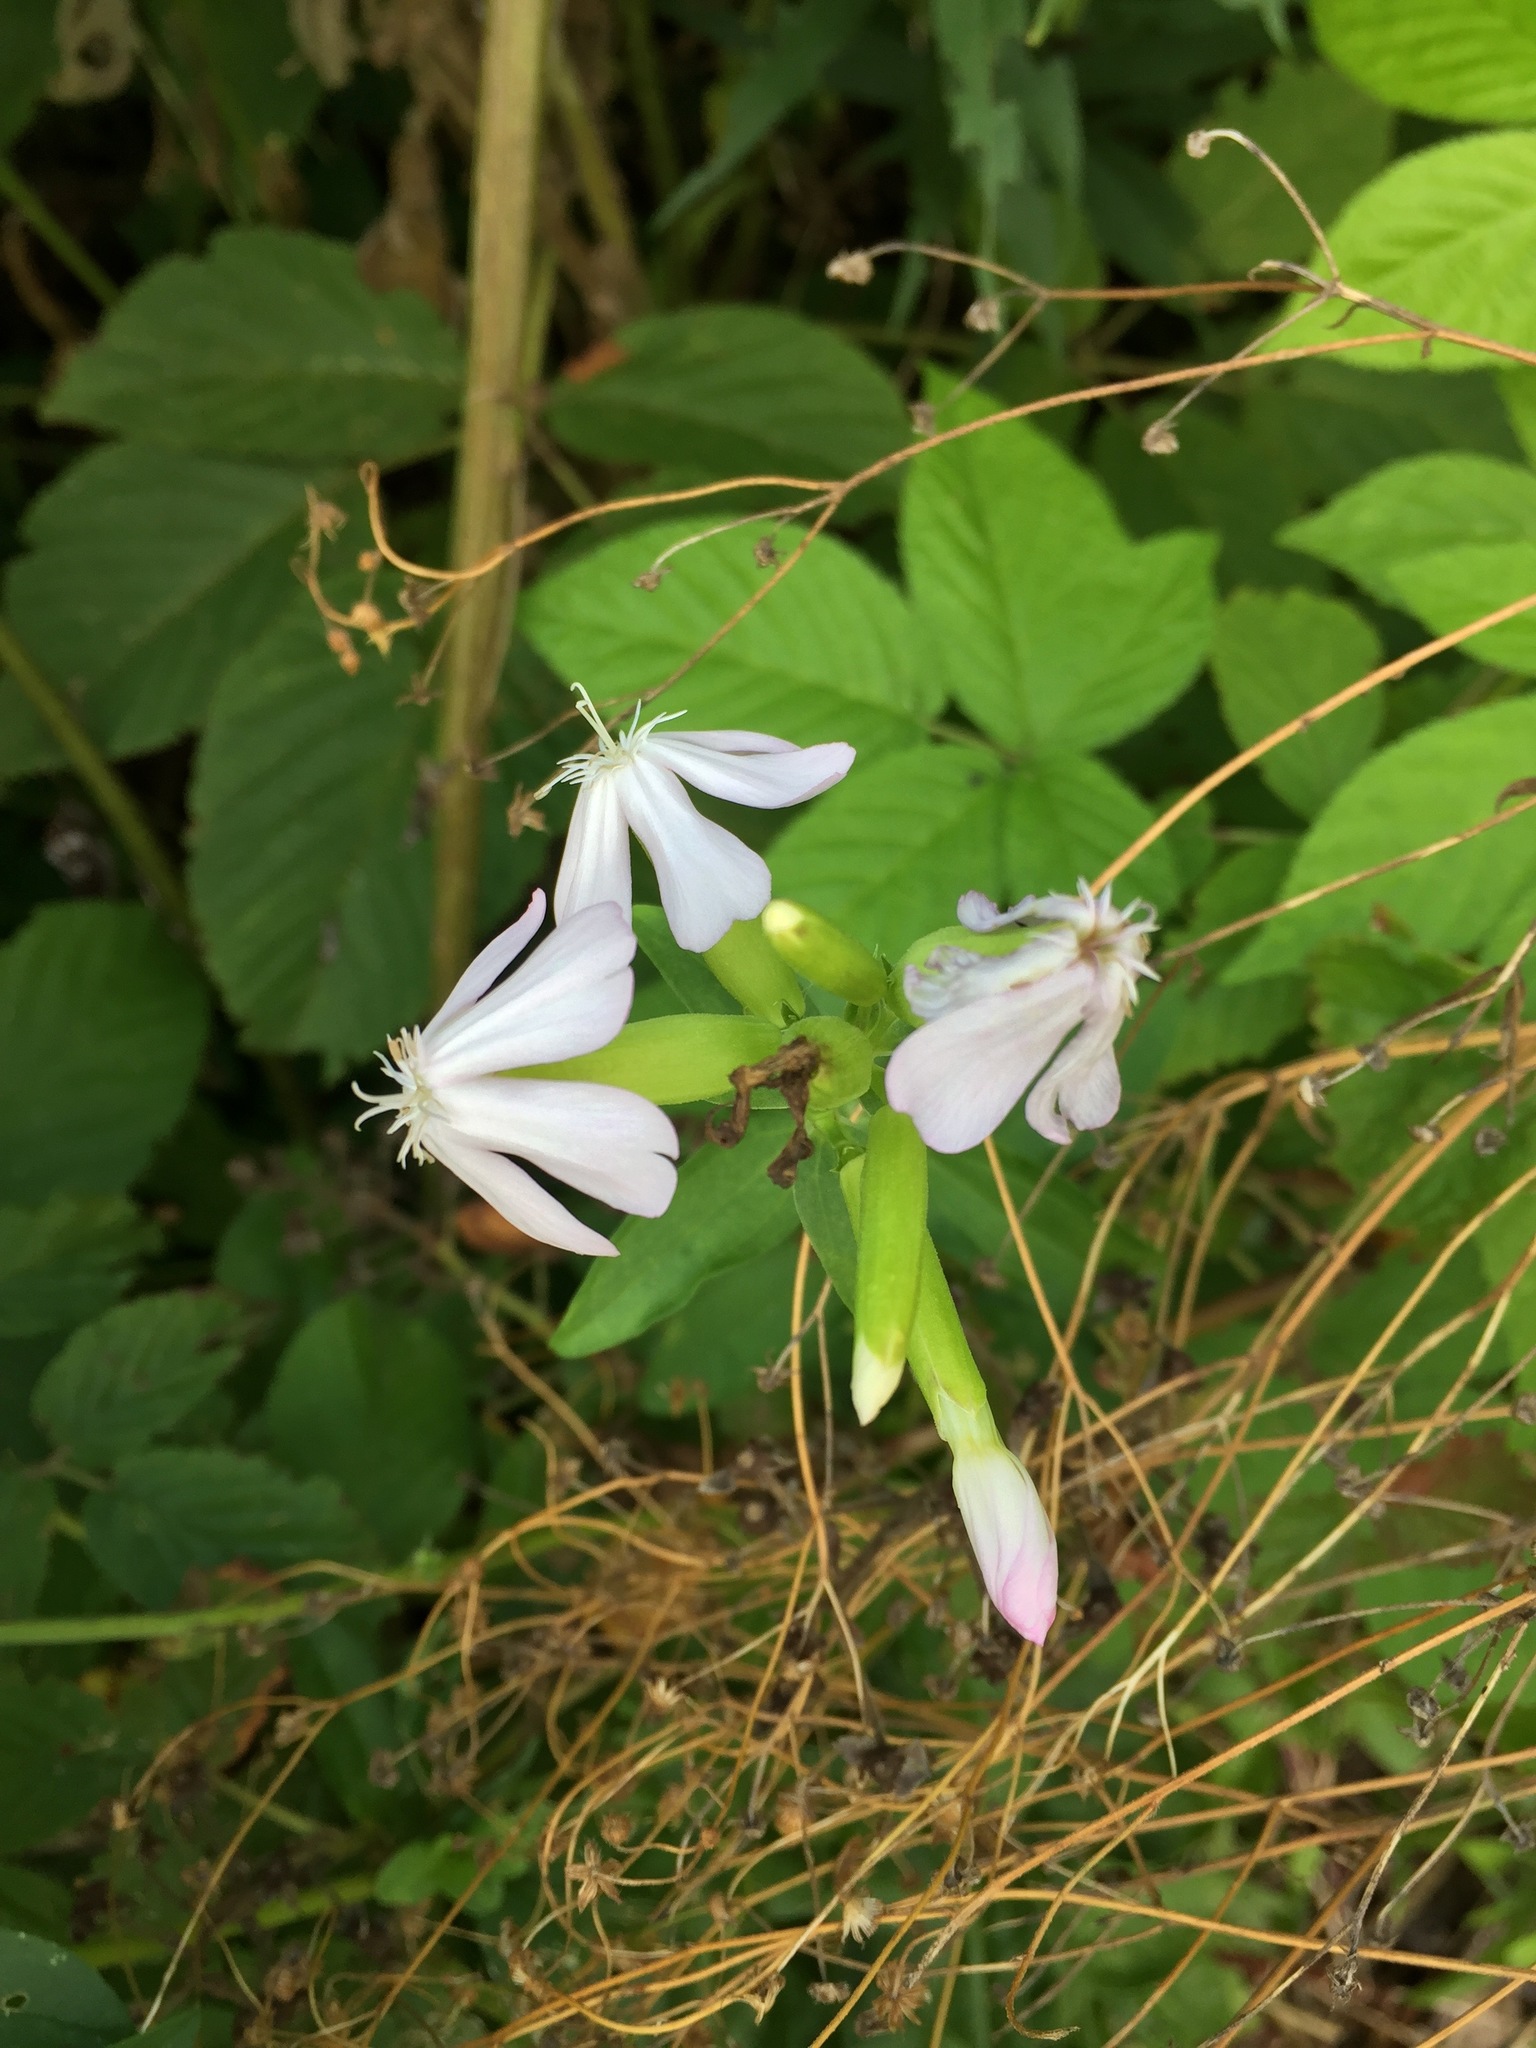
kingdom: Plantae
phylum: Tracheophyta
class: Magnoliopsida
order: Caryophyllales
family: Caryophyllaceae
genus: Saponaria
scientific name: Saponaria officinalis
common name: Soapwort
